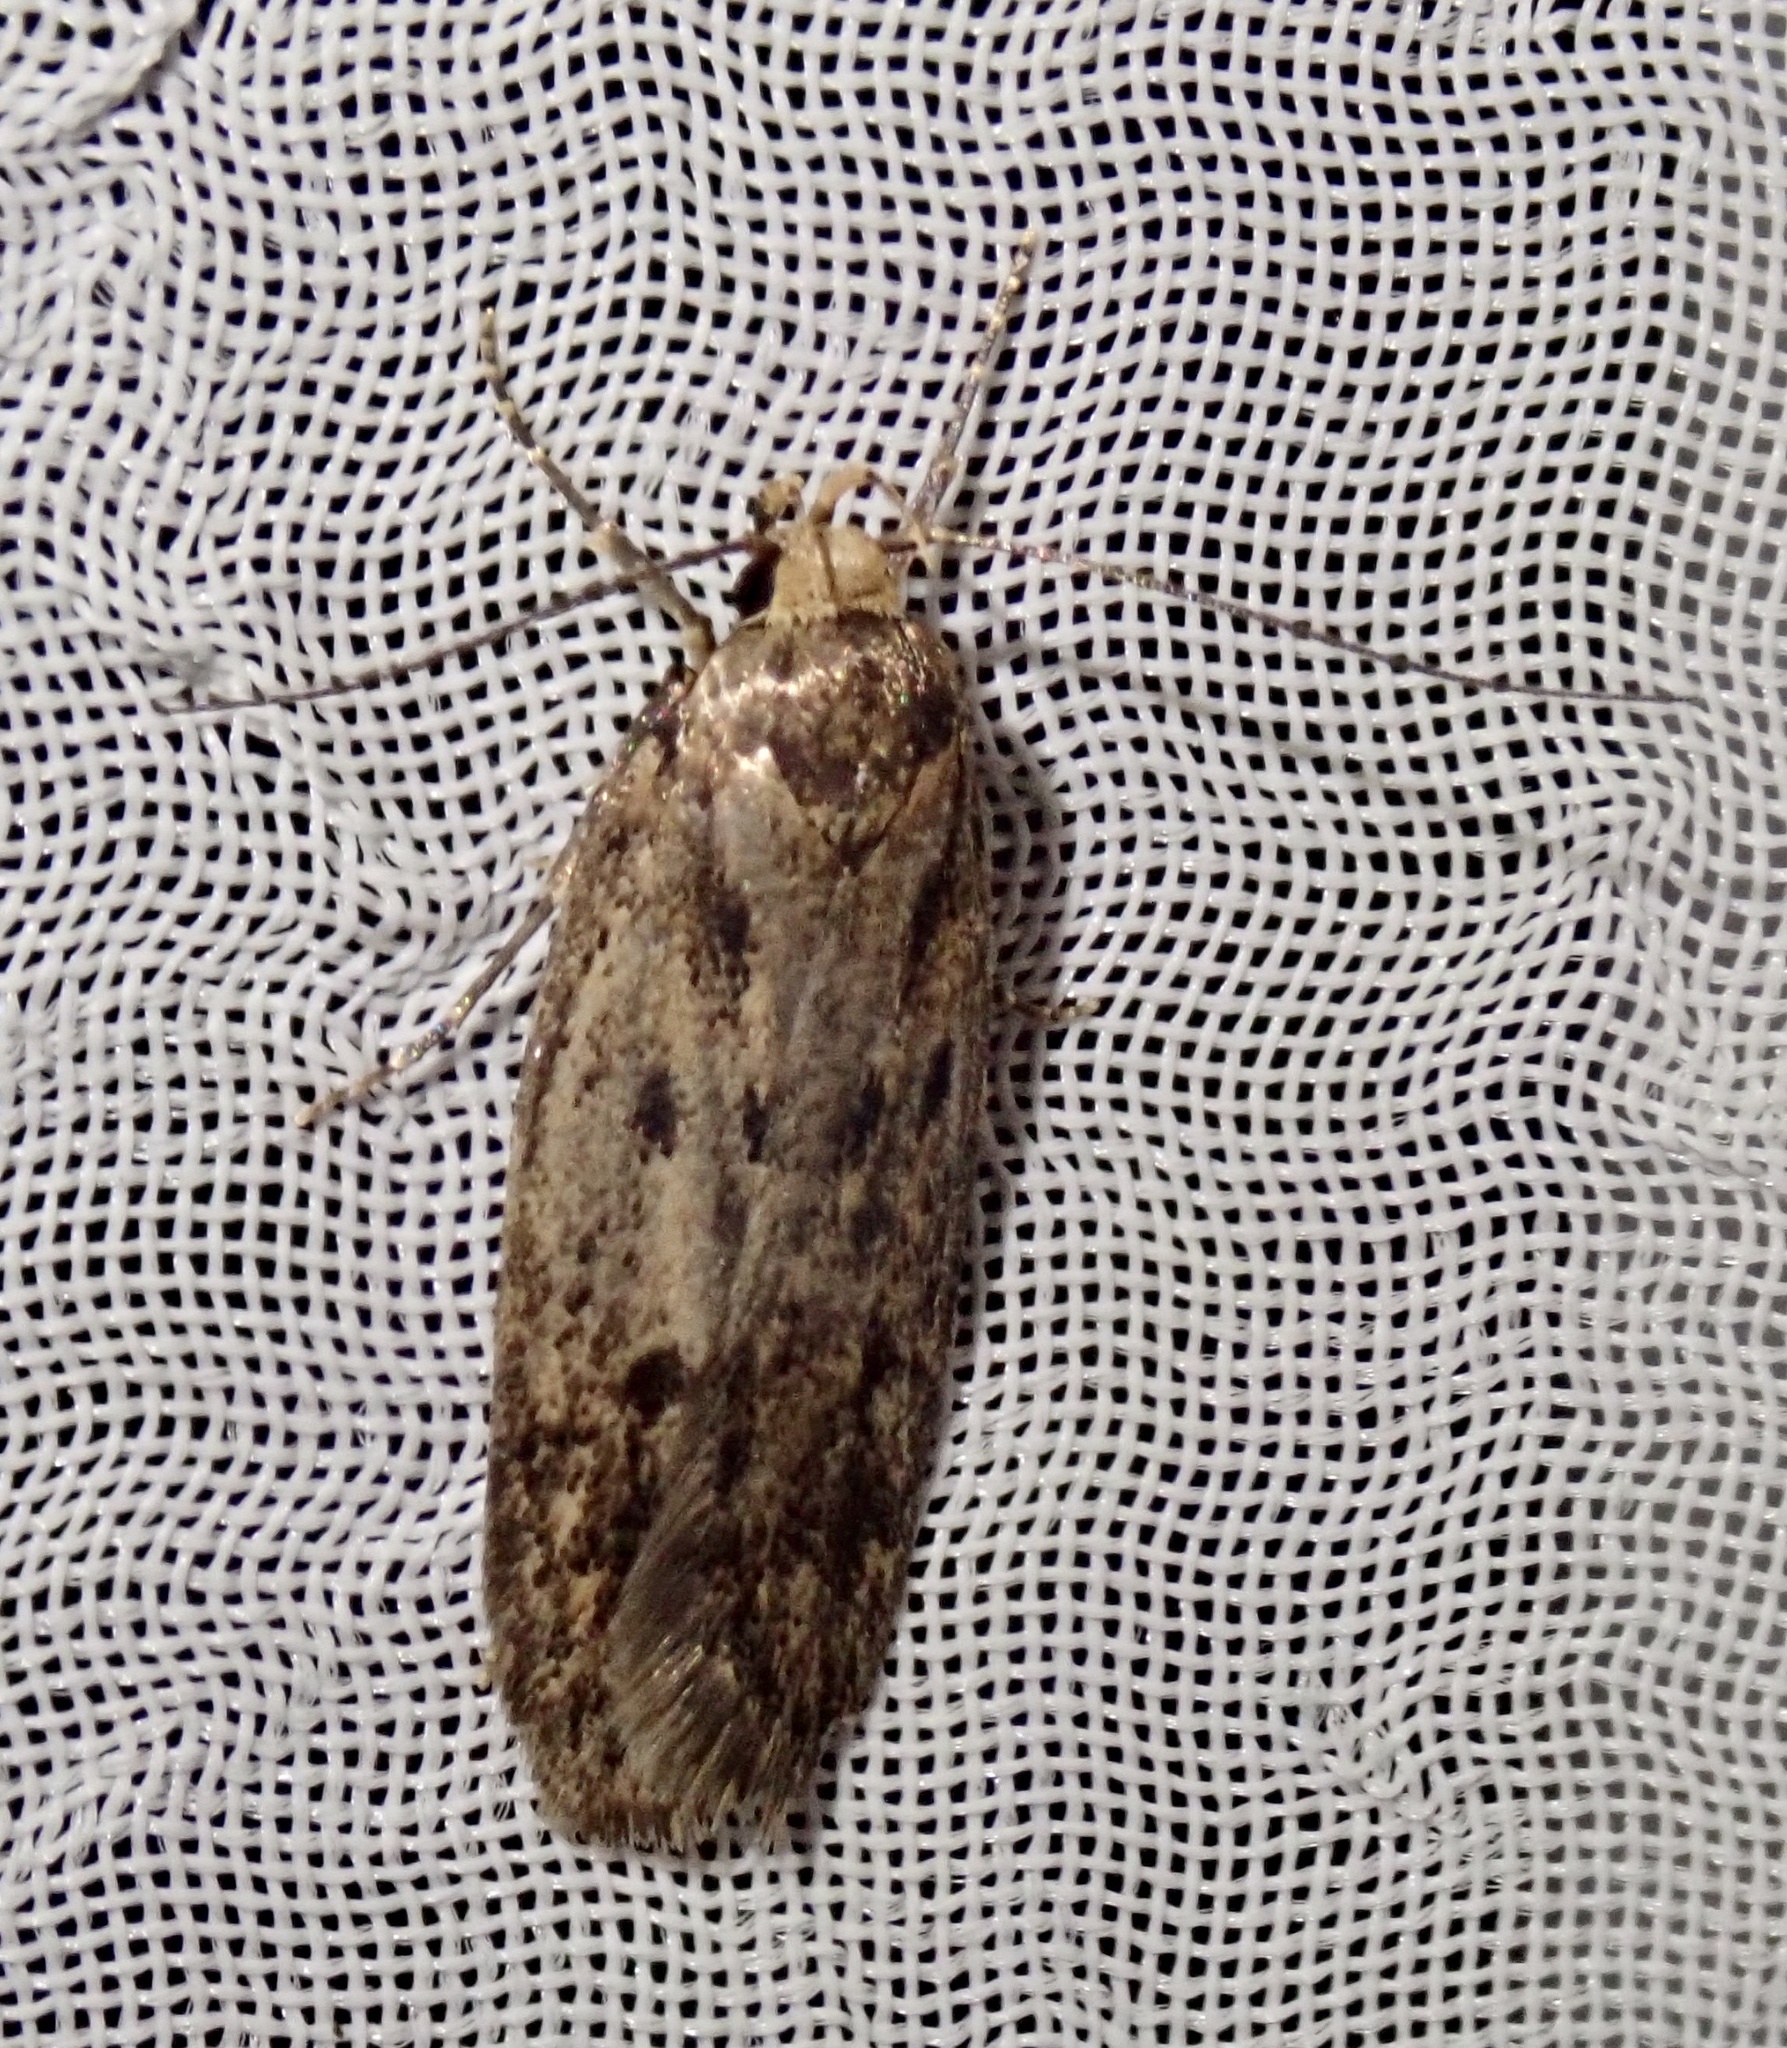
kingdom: Animalia
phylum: Arthropoda
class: Insecta
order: Lepidoptera
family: Oecophoridae
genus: Hofmannophila
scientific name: Hofmannophila pseudospretella
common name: Brown house moth
